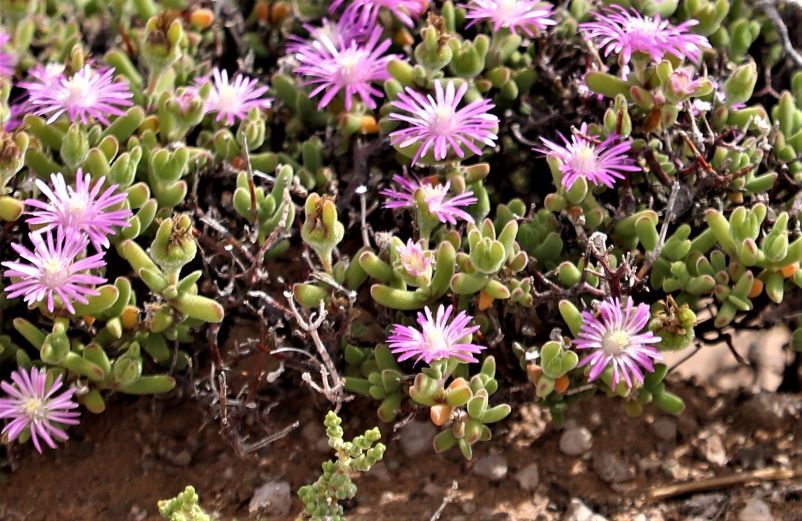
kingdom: Plantae
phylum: Tracheophyta
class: Magnoliopsida
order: Caryophyllales
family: Aizoaceae
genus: Drosanthemum
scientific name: Drosanthemum subspinosum
